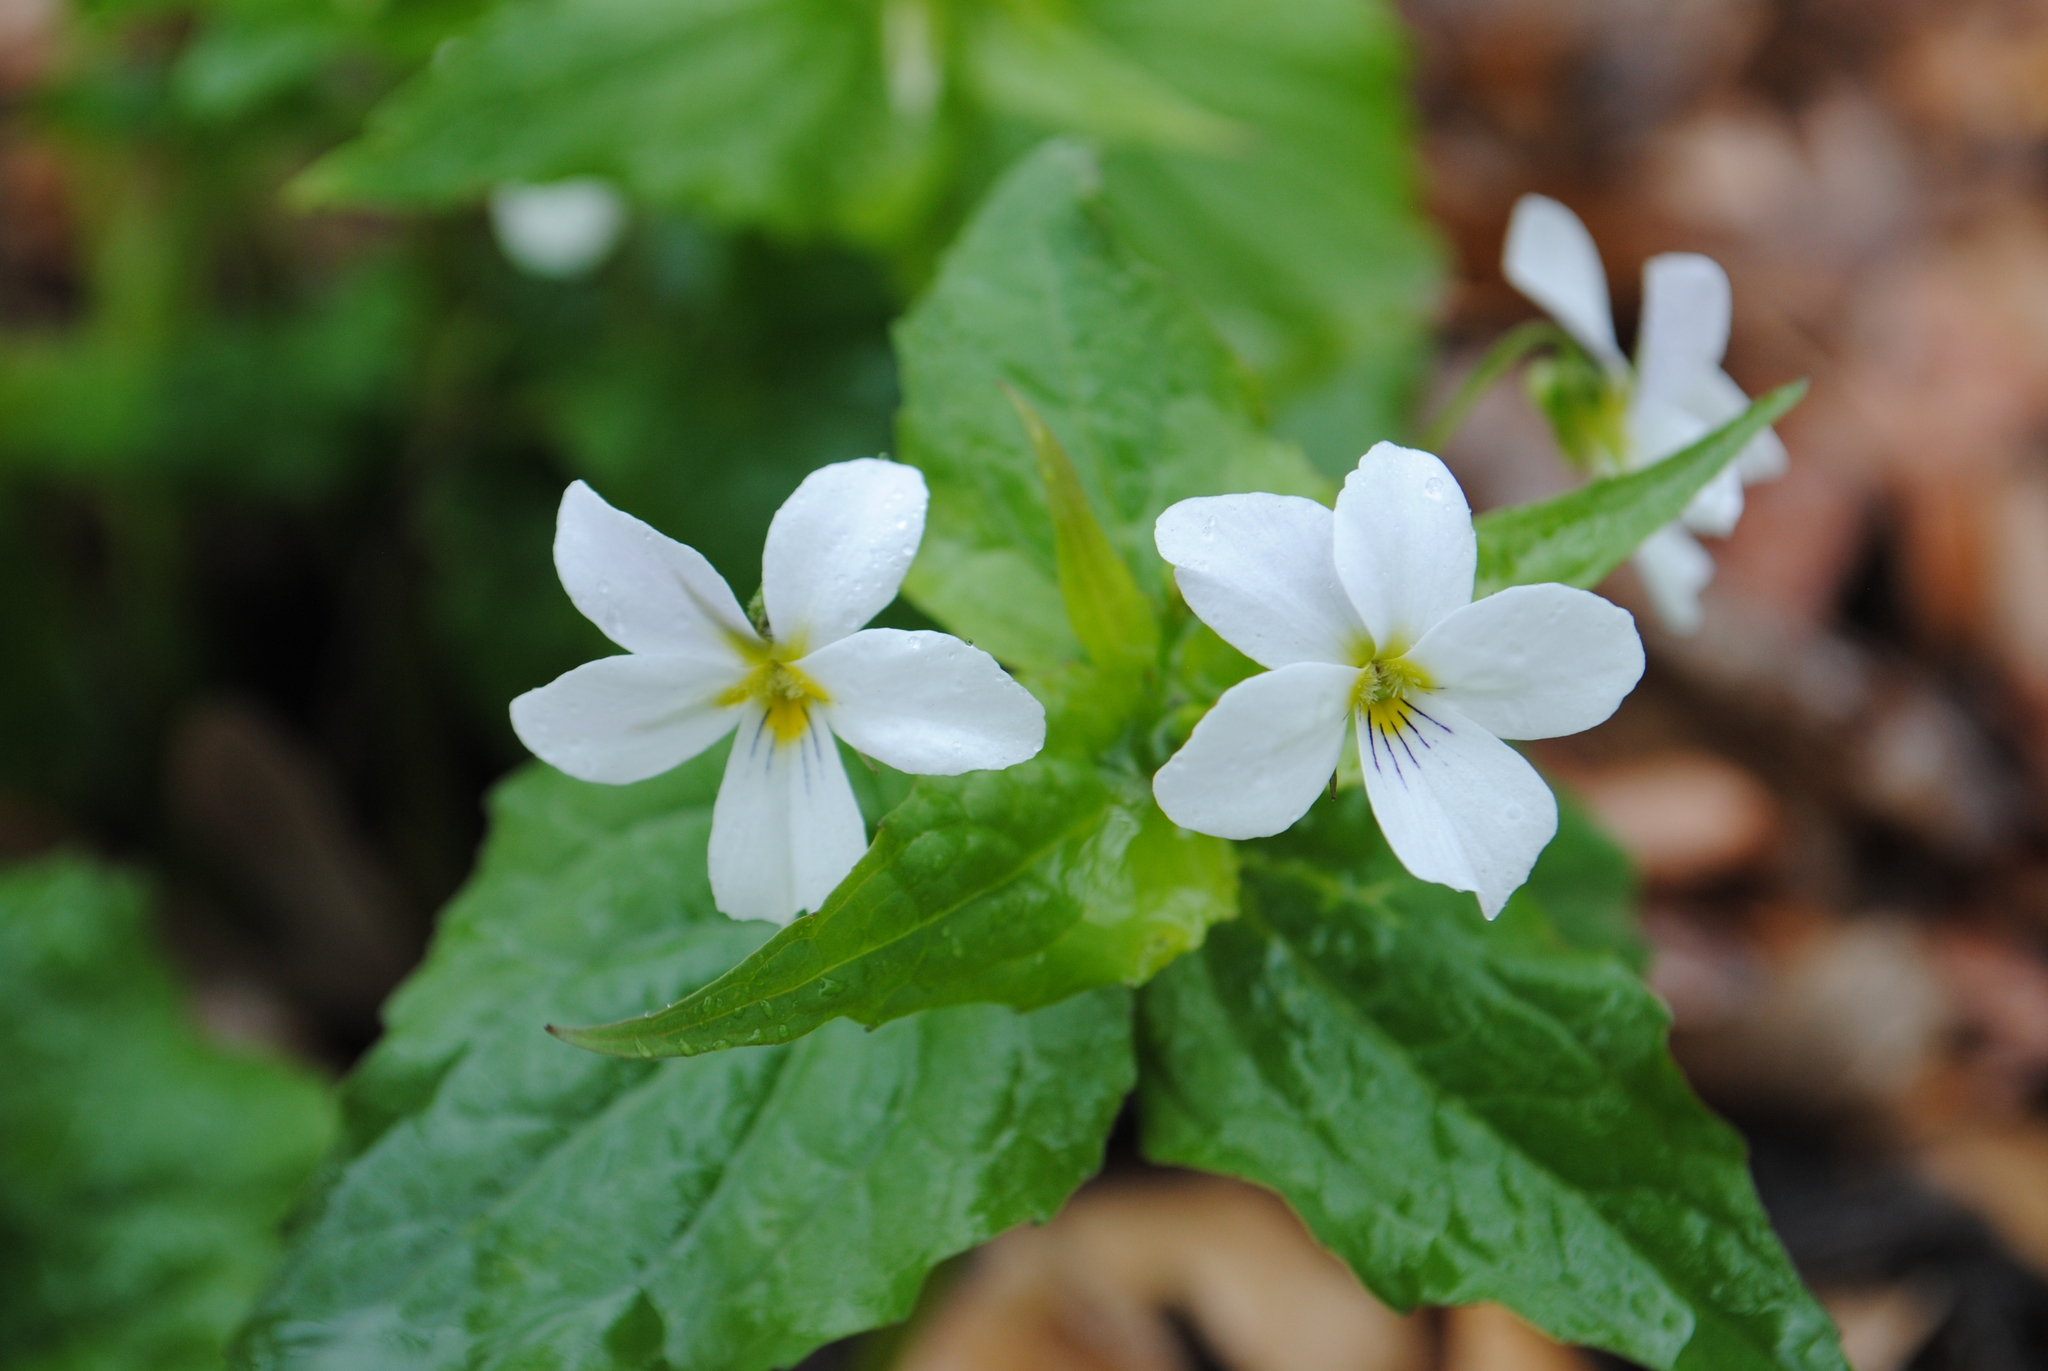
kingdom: Plantae
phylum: Tracheophyta
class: Magnoliopsida
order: Malpighiales
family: Violaceae
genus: Viola
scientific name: Viola canadensis
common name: Canada violet
